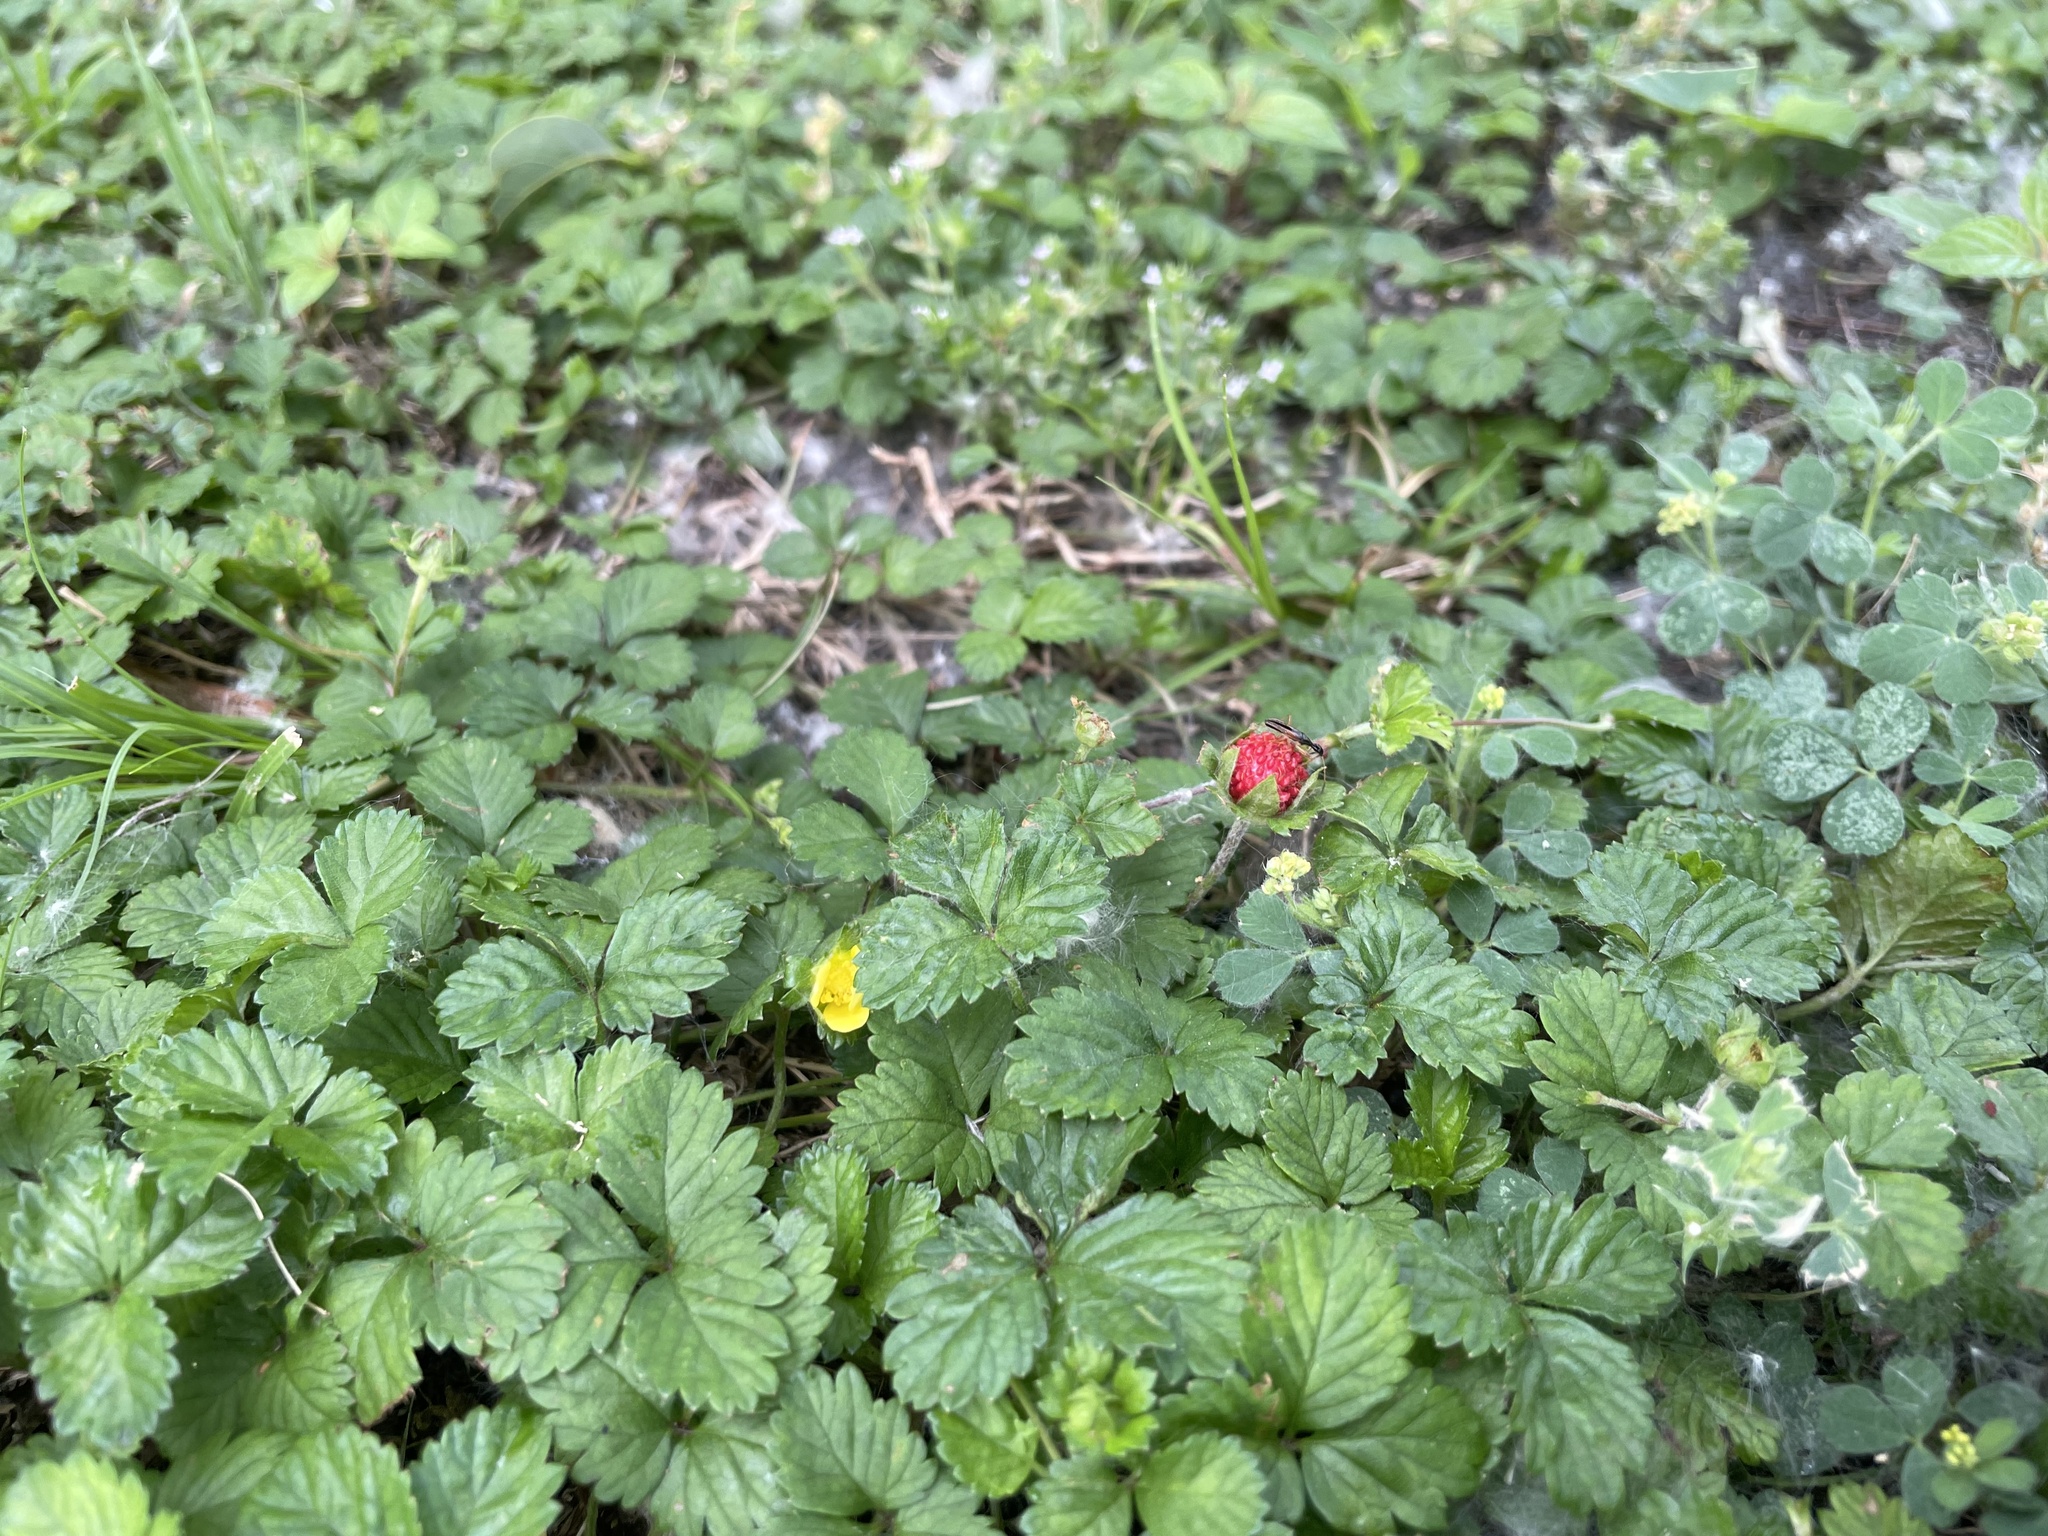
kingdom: Plantae
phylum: Tracheophyta
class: Magnoliopsida
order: Rosales
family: Rosaceae
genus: Potentilla
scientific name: Potentilla indica
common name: Yellow-flowered strawberry
